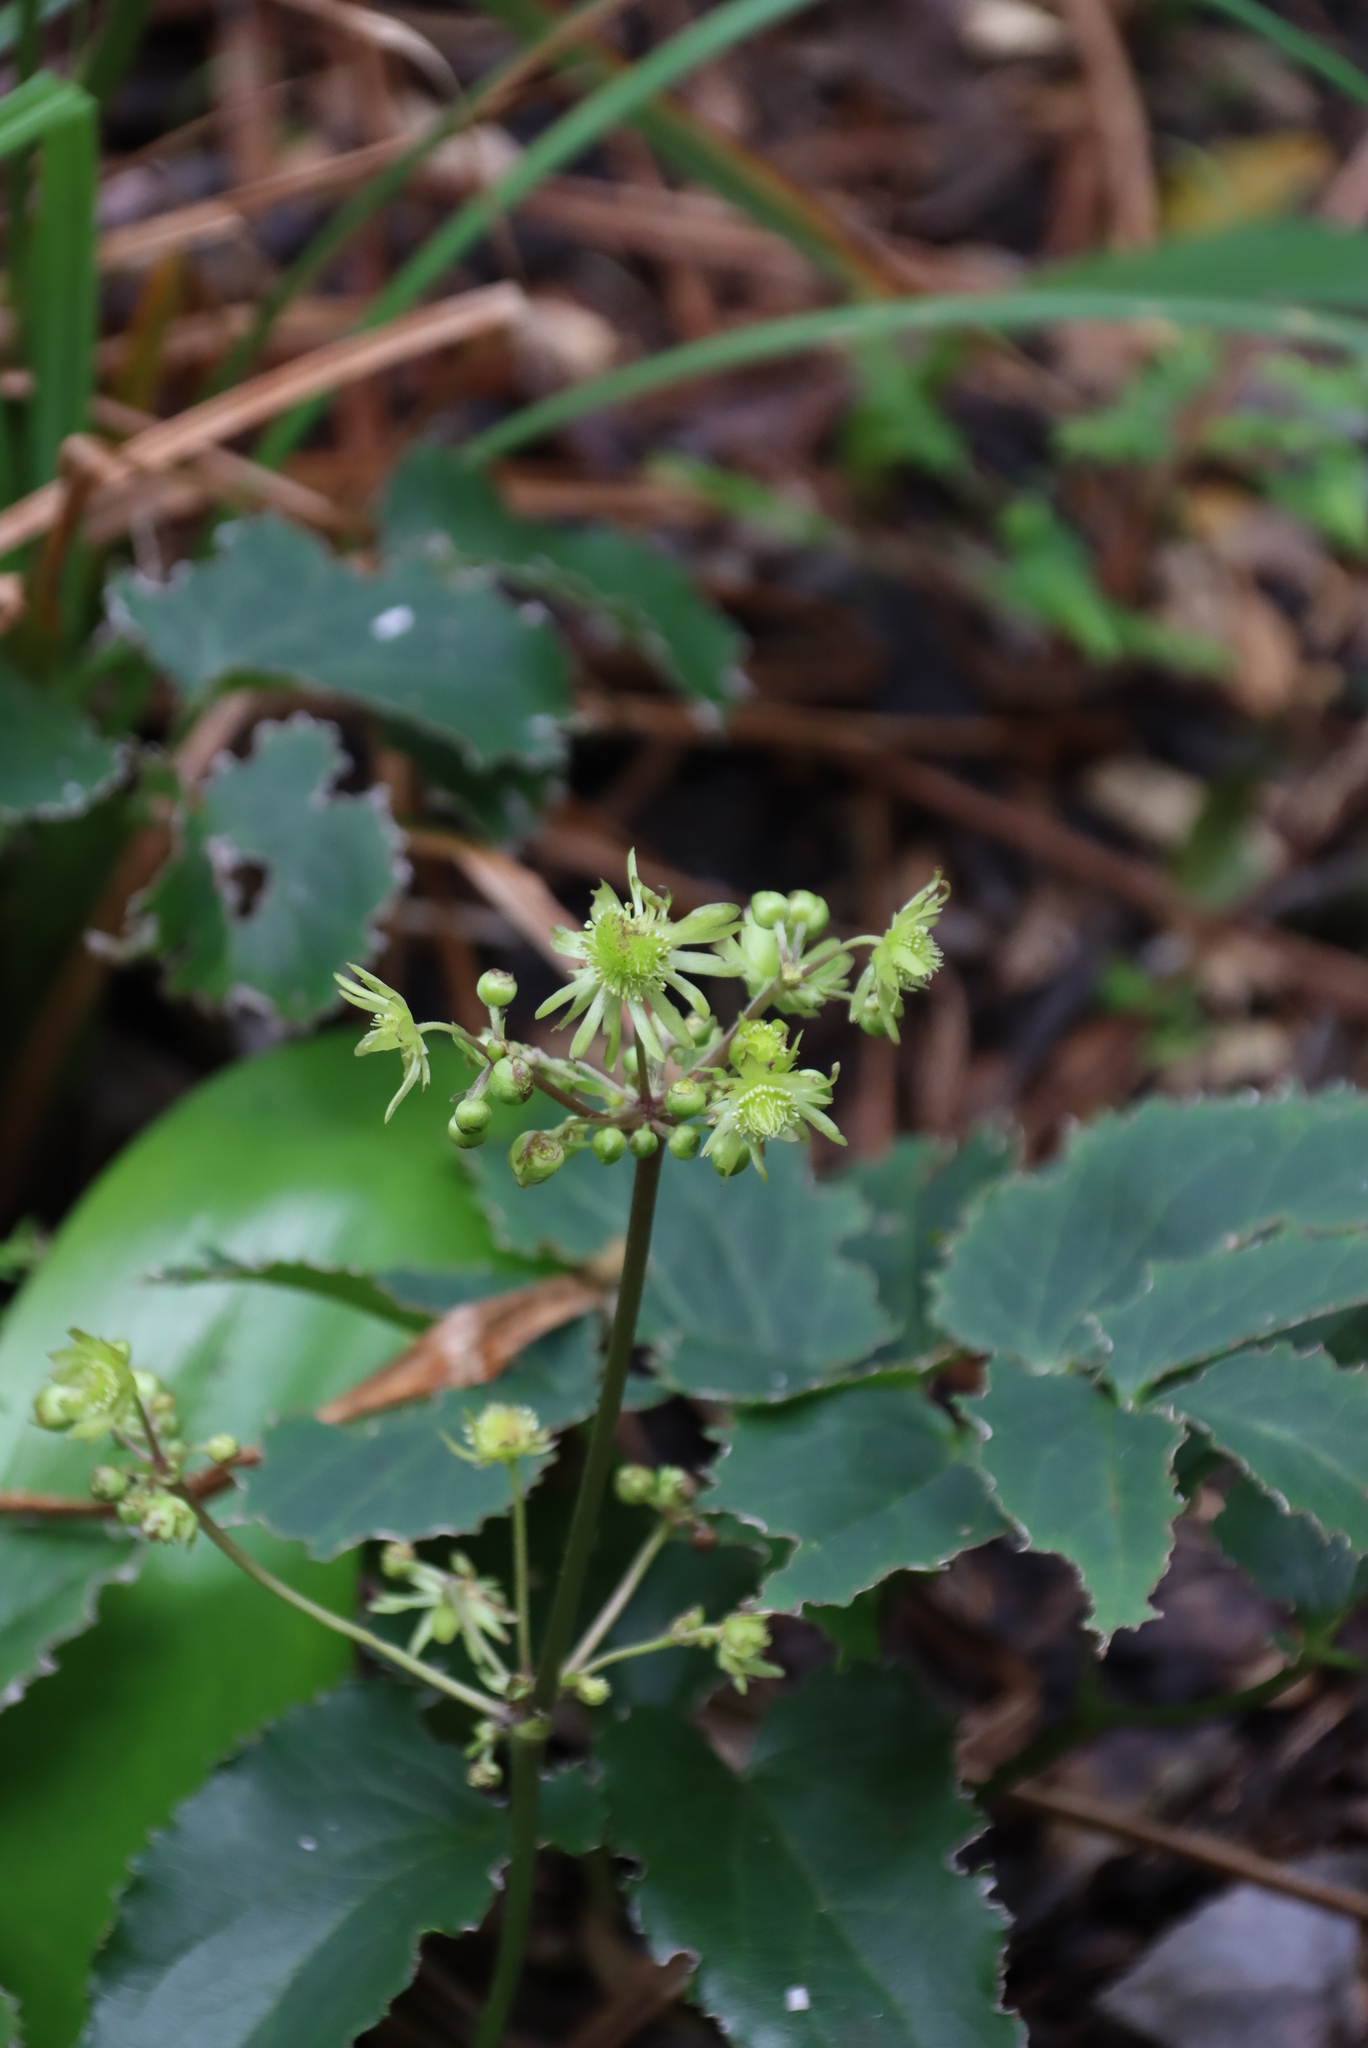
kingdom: Plantae
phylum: Tracheophyta
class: Magnoliopsida
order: Ranunculales
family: Ranunculaceae
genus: Knowltonia
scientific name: Knowltonia vesicatoria
